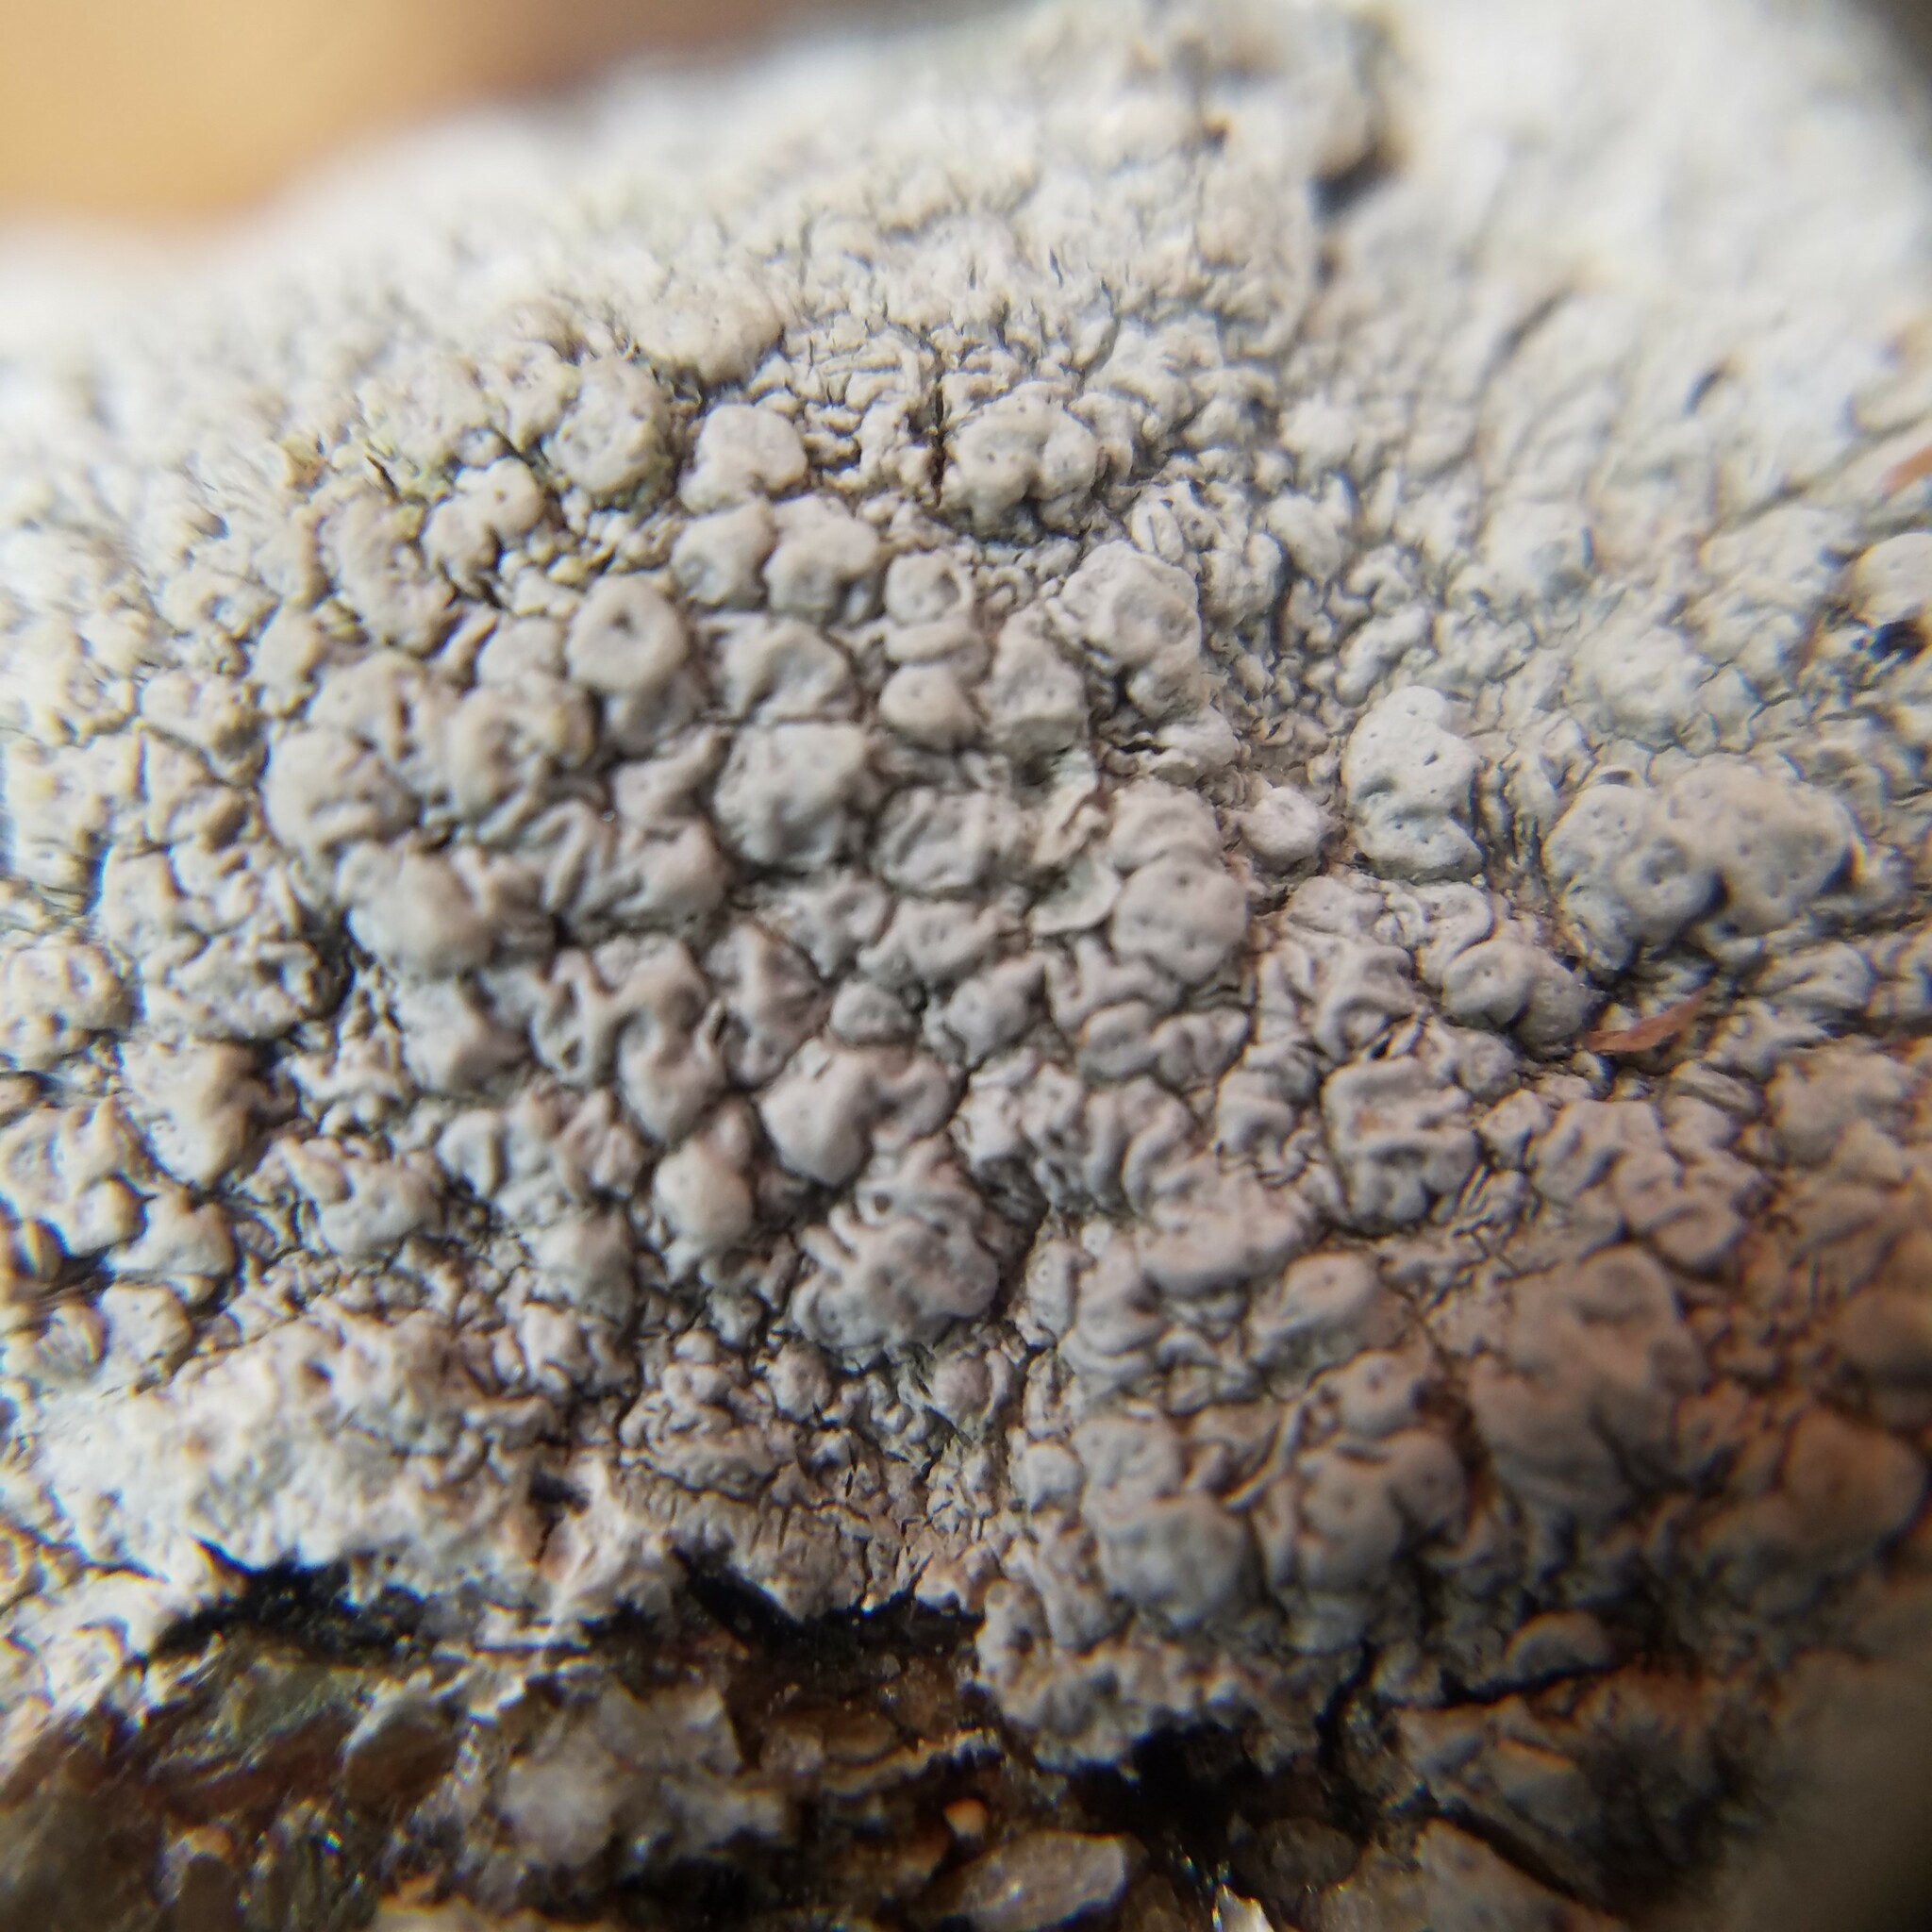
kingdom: Fungi
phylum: Ascomycota
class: Lecanoromycetes
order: Pertusariales
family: Pertusariaceae
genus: Pertusaria
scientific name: Pertusaria plittiana
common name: Rock wart lichen
